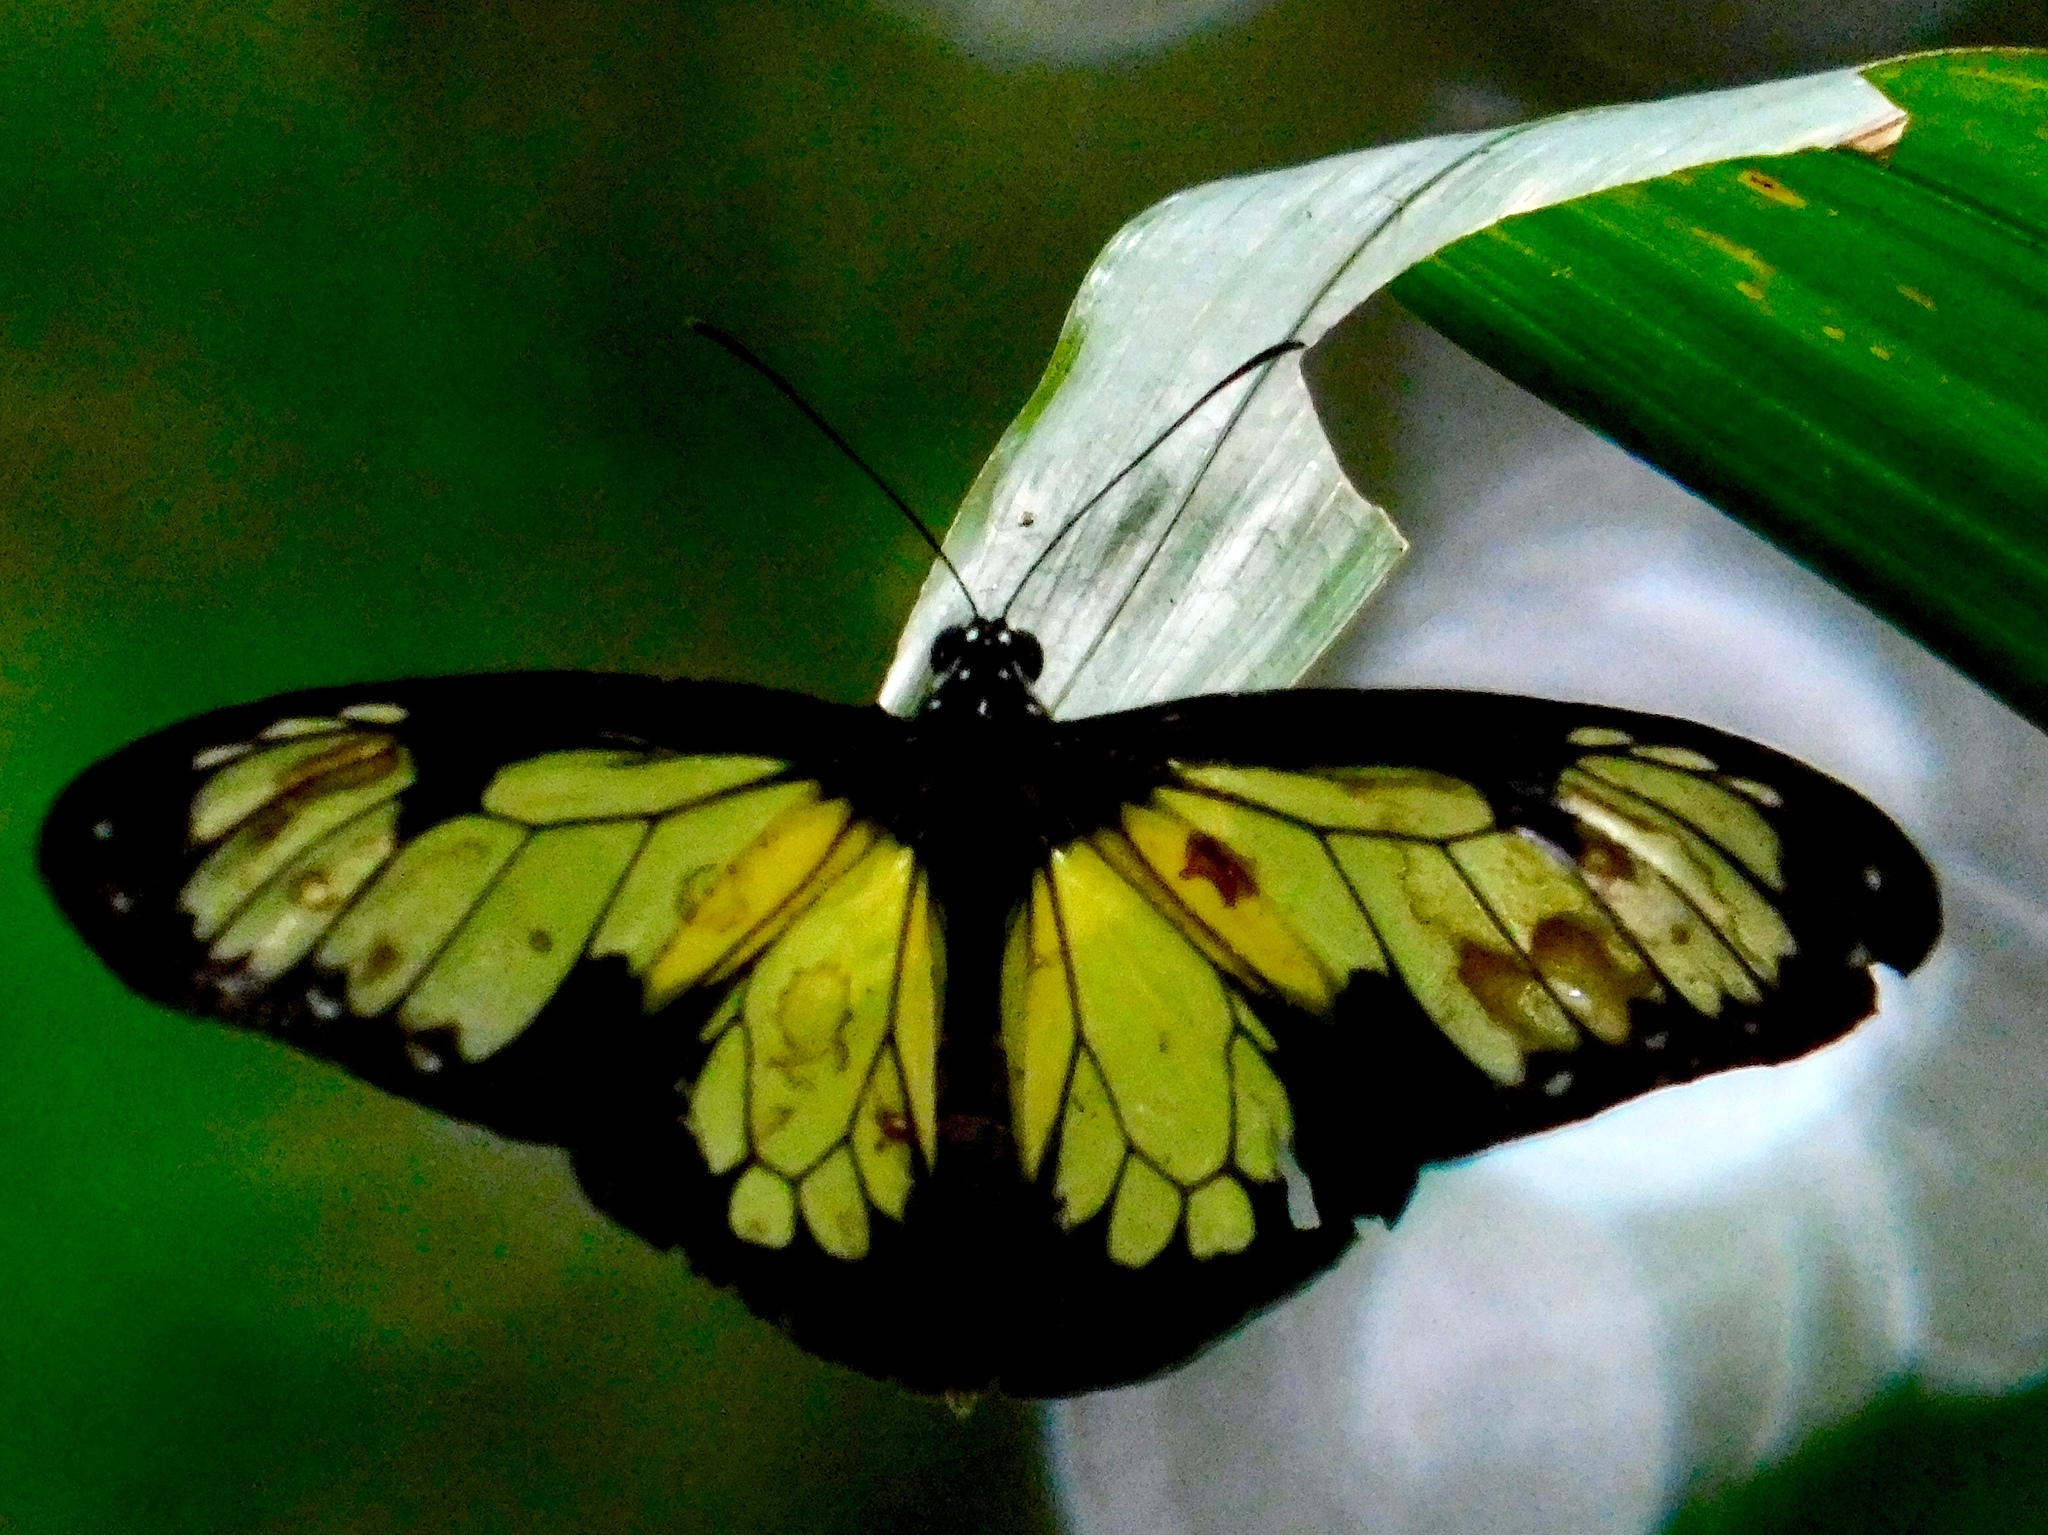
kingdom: Animalia
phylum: Arthropoda
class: Insecta
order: Lepidoptera
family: Nymphalidae
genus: Parantica
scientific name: Parantica schenkii
